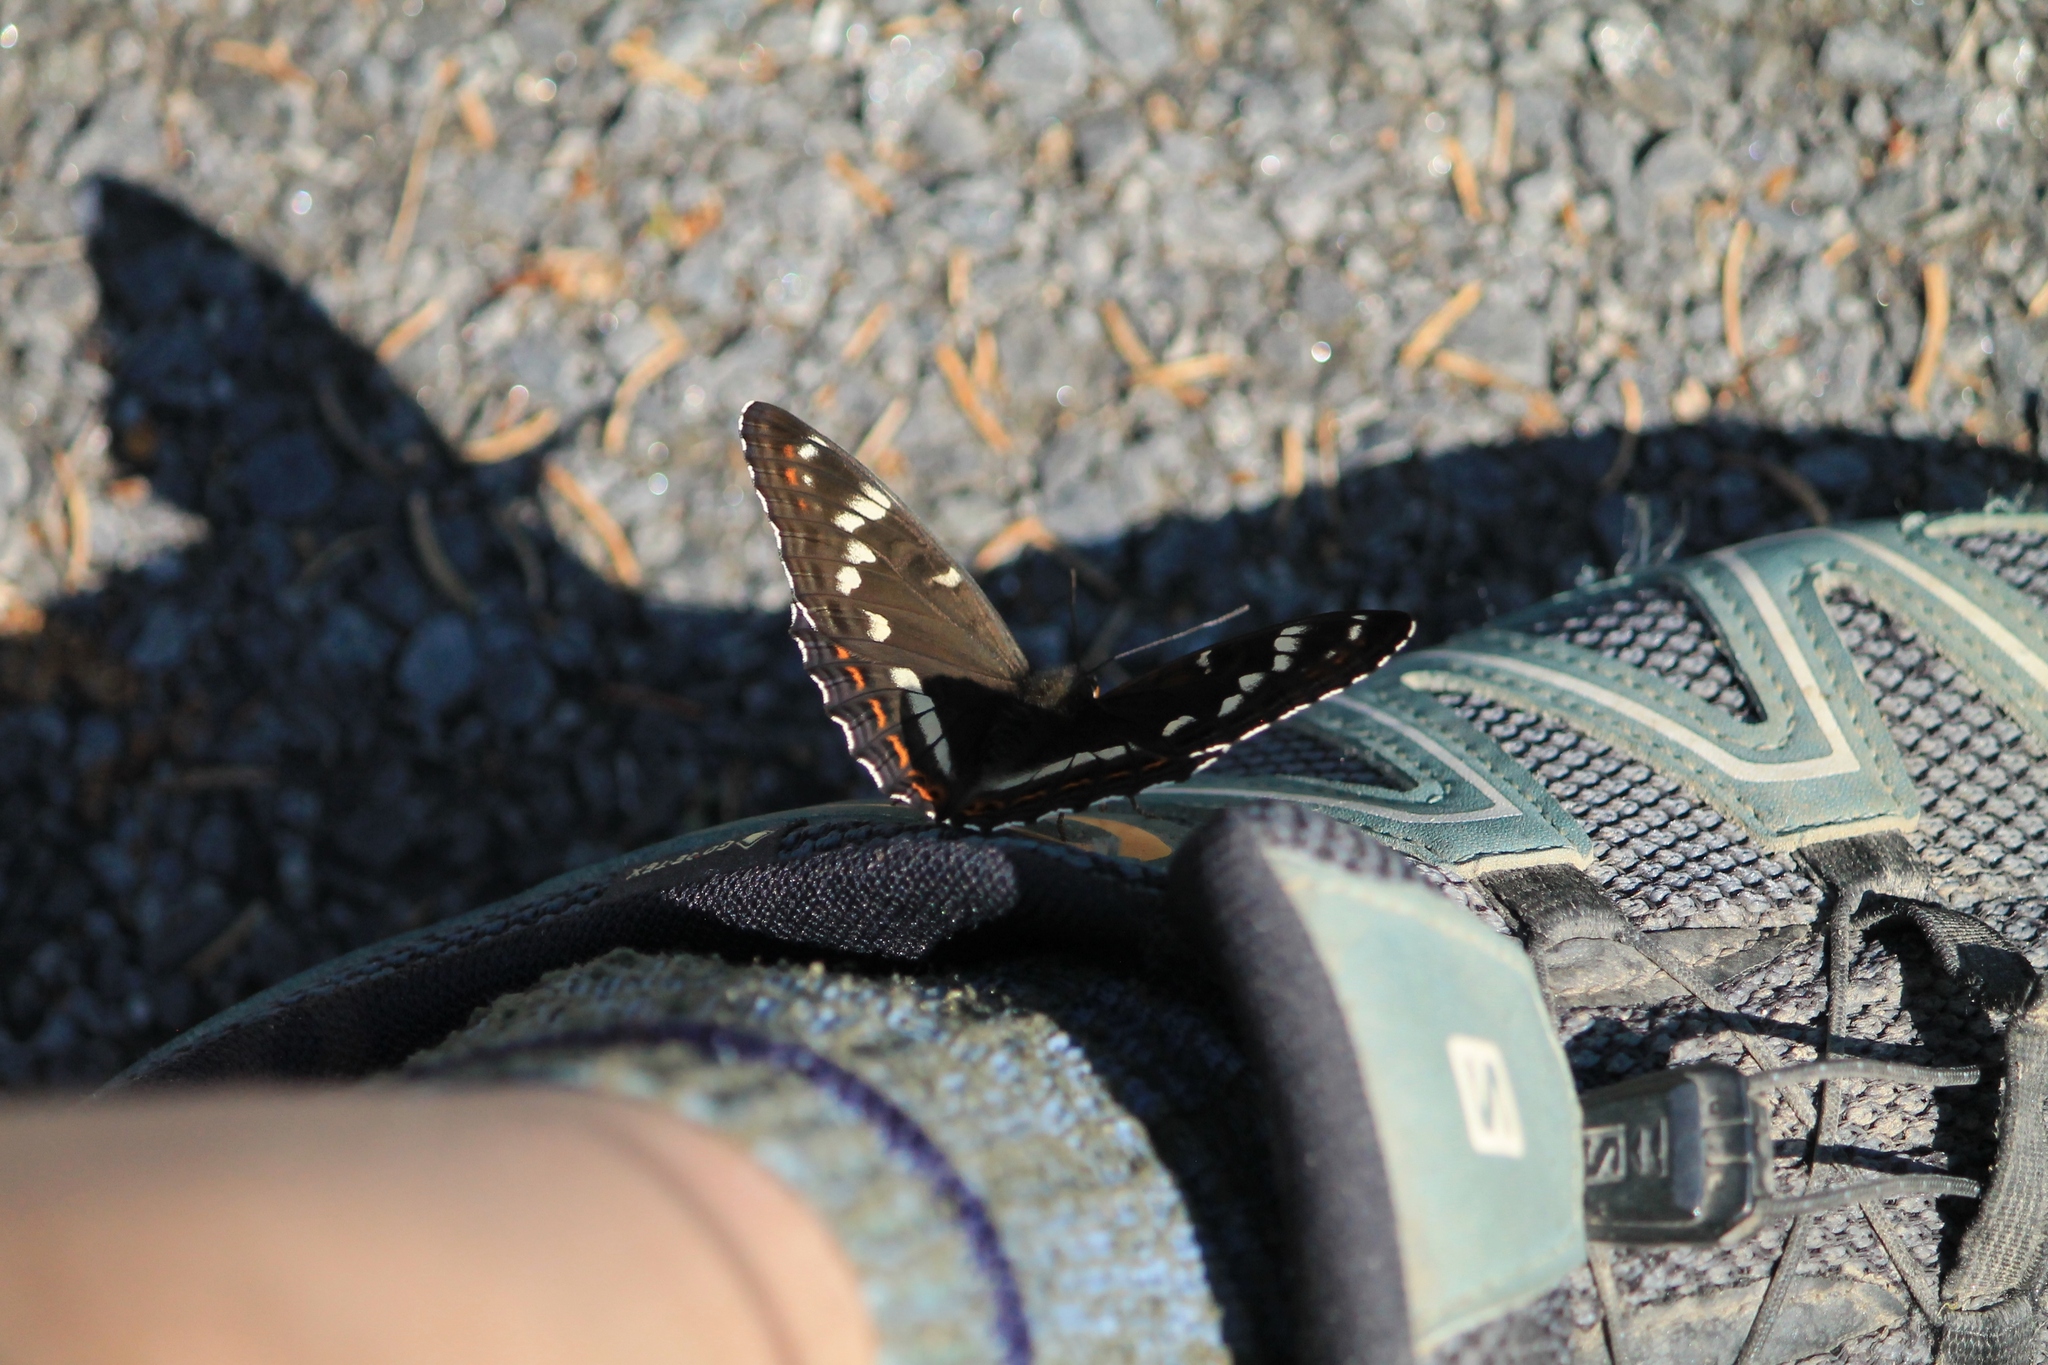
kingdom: Animalia
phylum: Arthropoda
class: Insecta
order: Lepidoptera
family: Nymphalidae
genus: Limenitis
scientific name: Limenitis populi
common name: Poplar admiral
